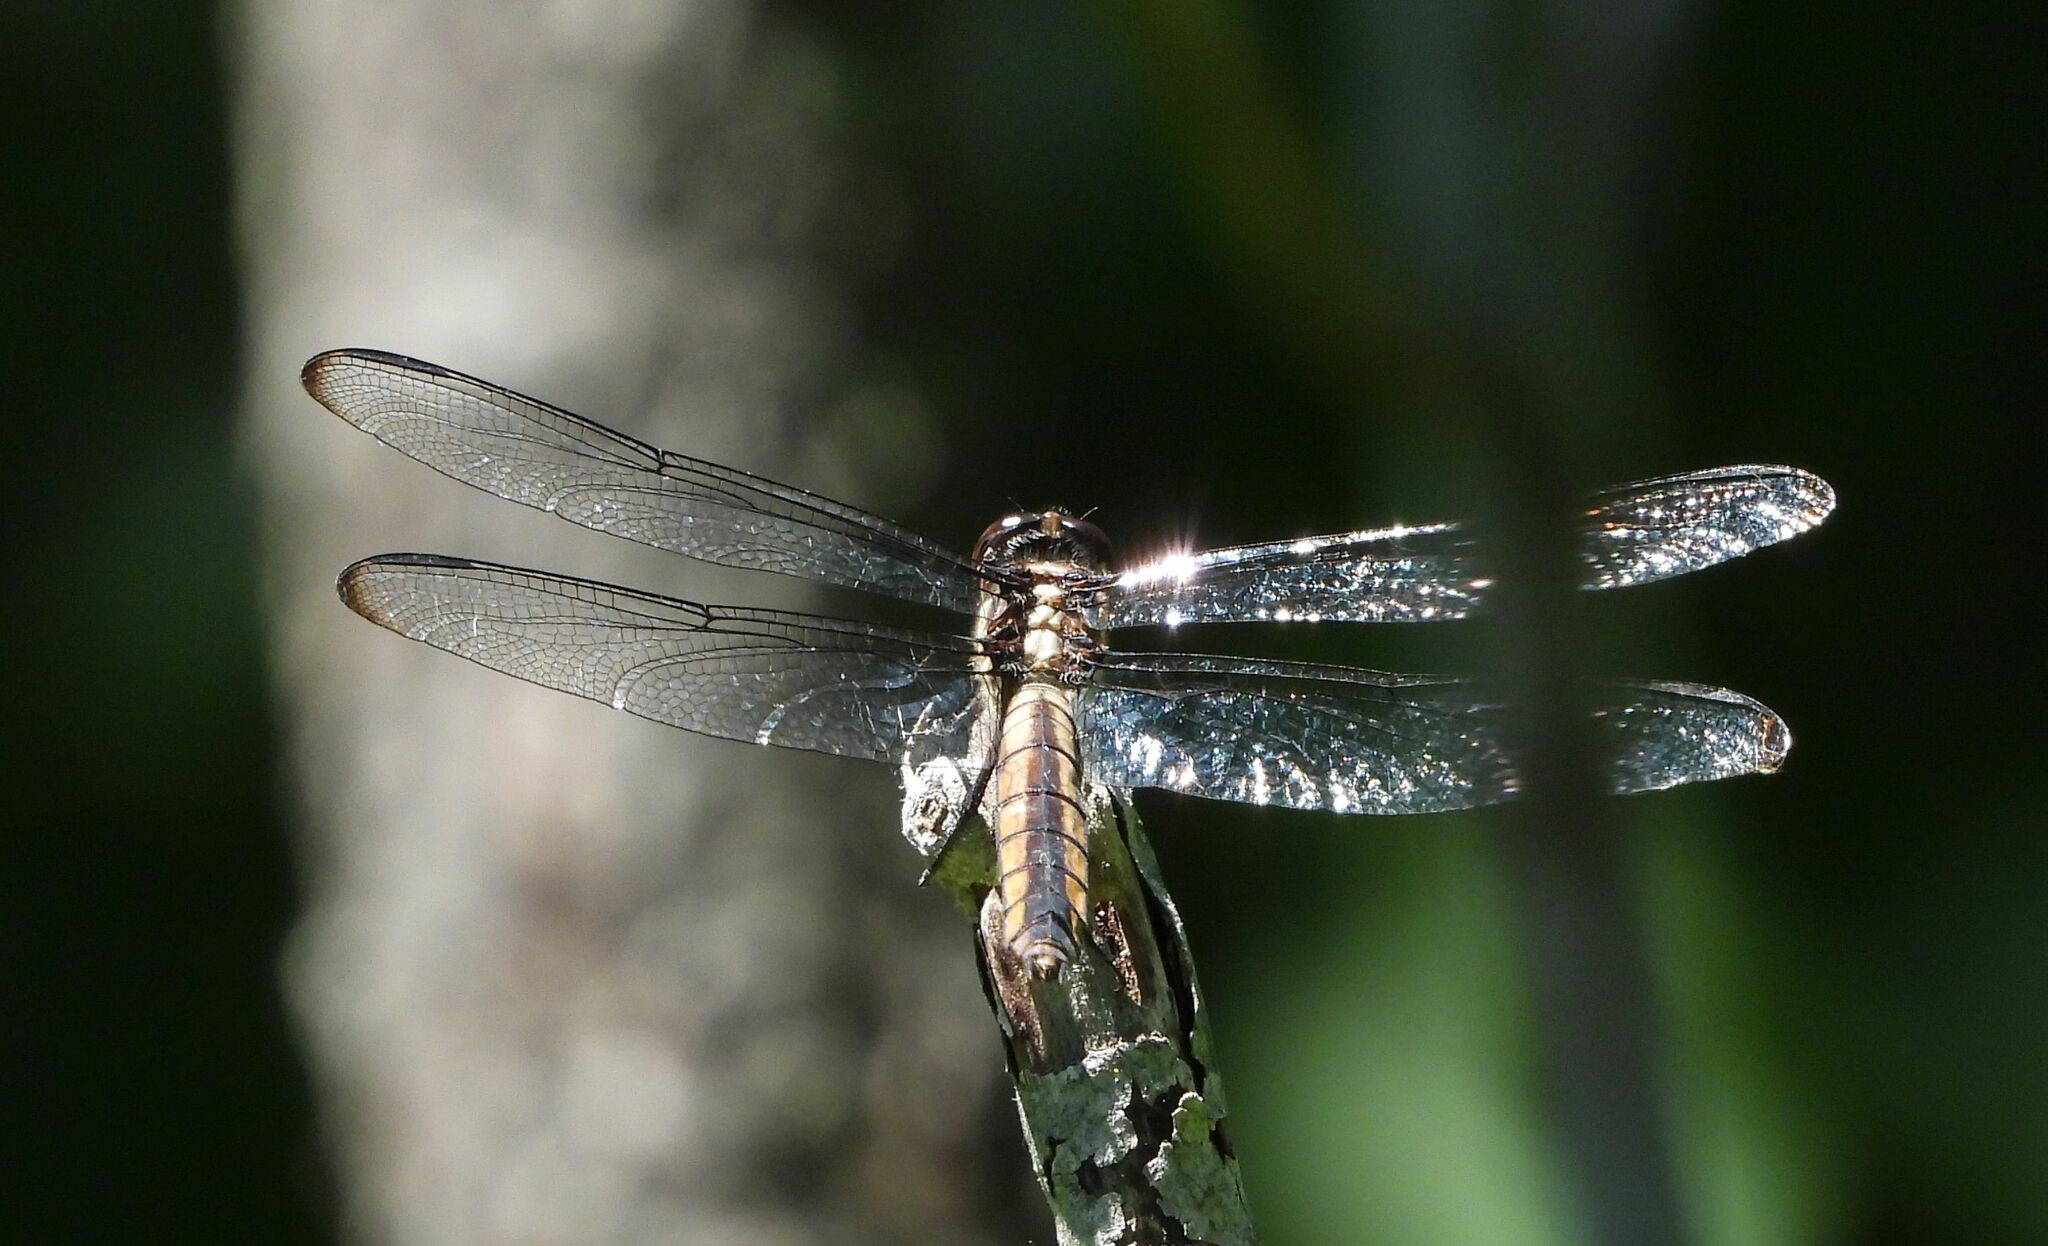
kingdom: Animalia
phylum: Arthropoda
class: Insecta
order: Odonata
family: Libellulidae
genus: Libellula
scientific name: Libellula incesta
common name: Slaty skimmer
